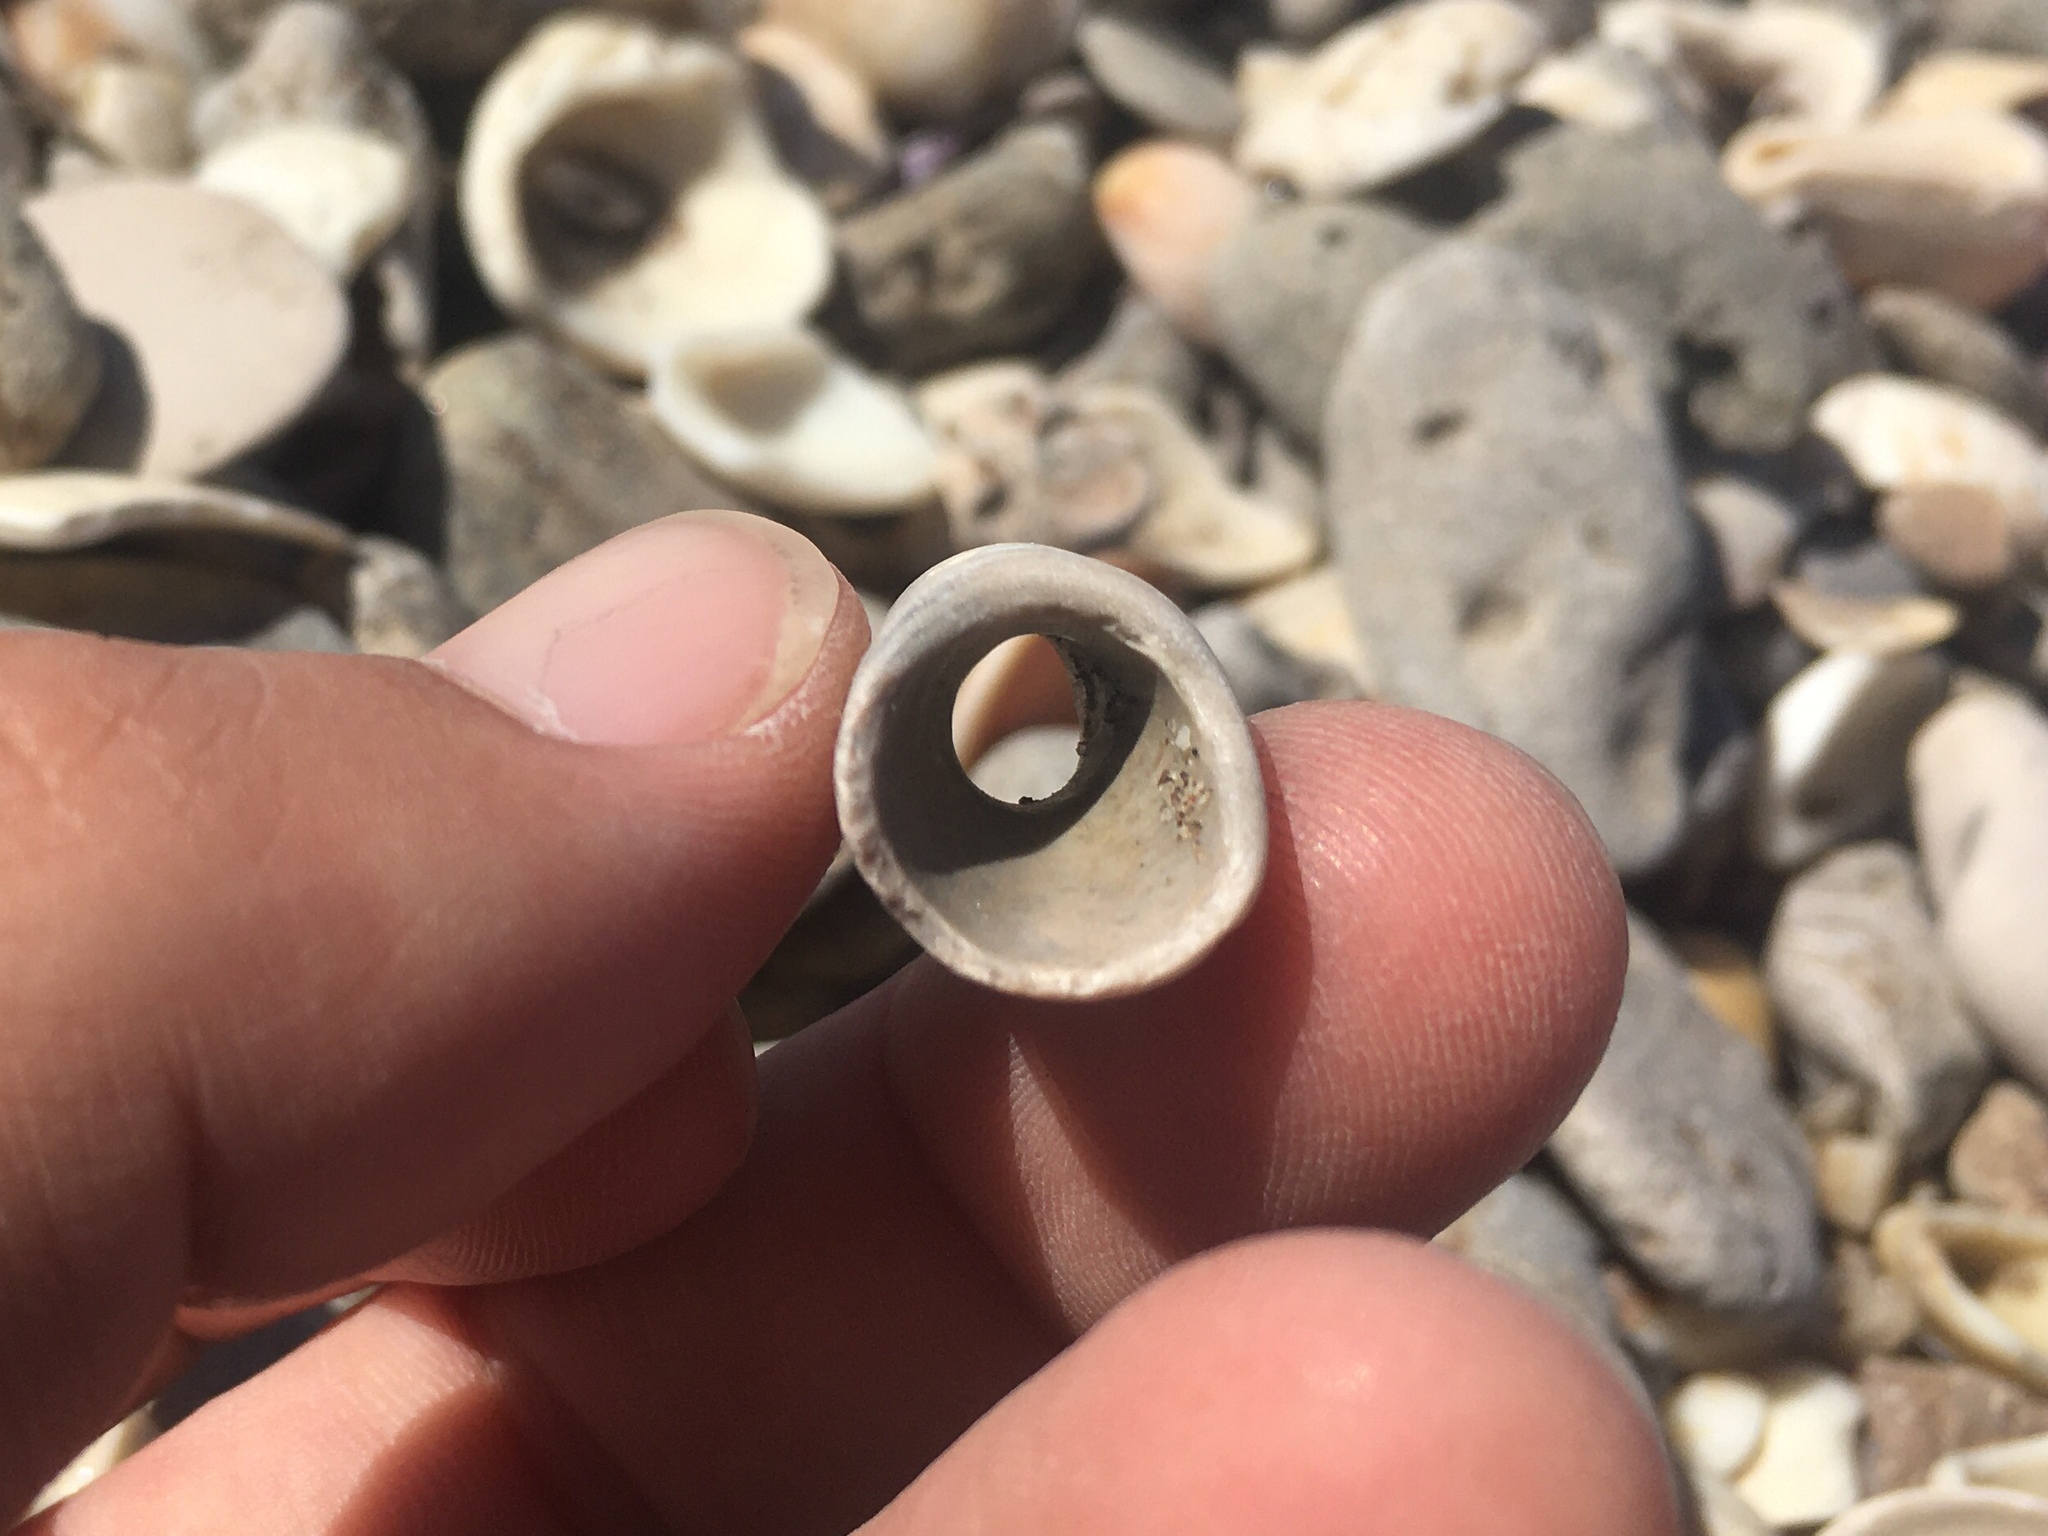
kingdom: Animalia
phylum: Mollusca
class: Bivalvia
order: Mytilida
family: Mytilidae
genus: Leiosolenus
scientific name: Leiosolenus patagonicus
